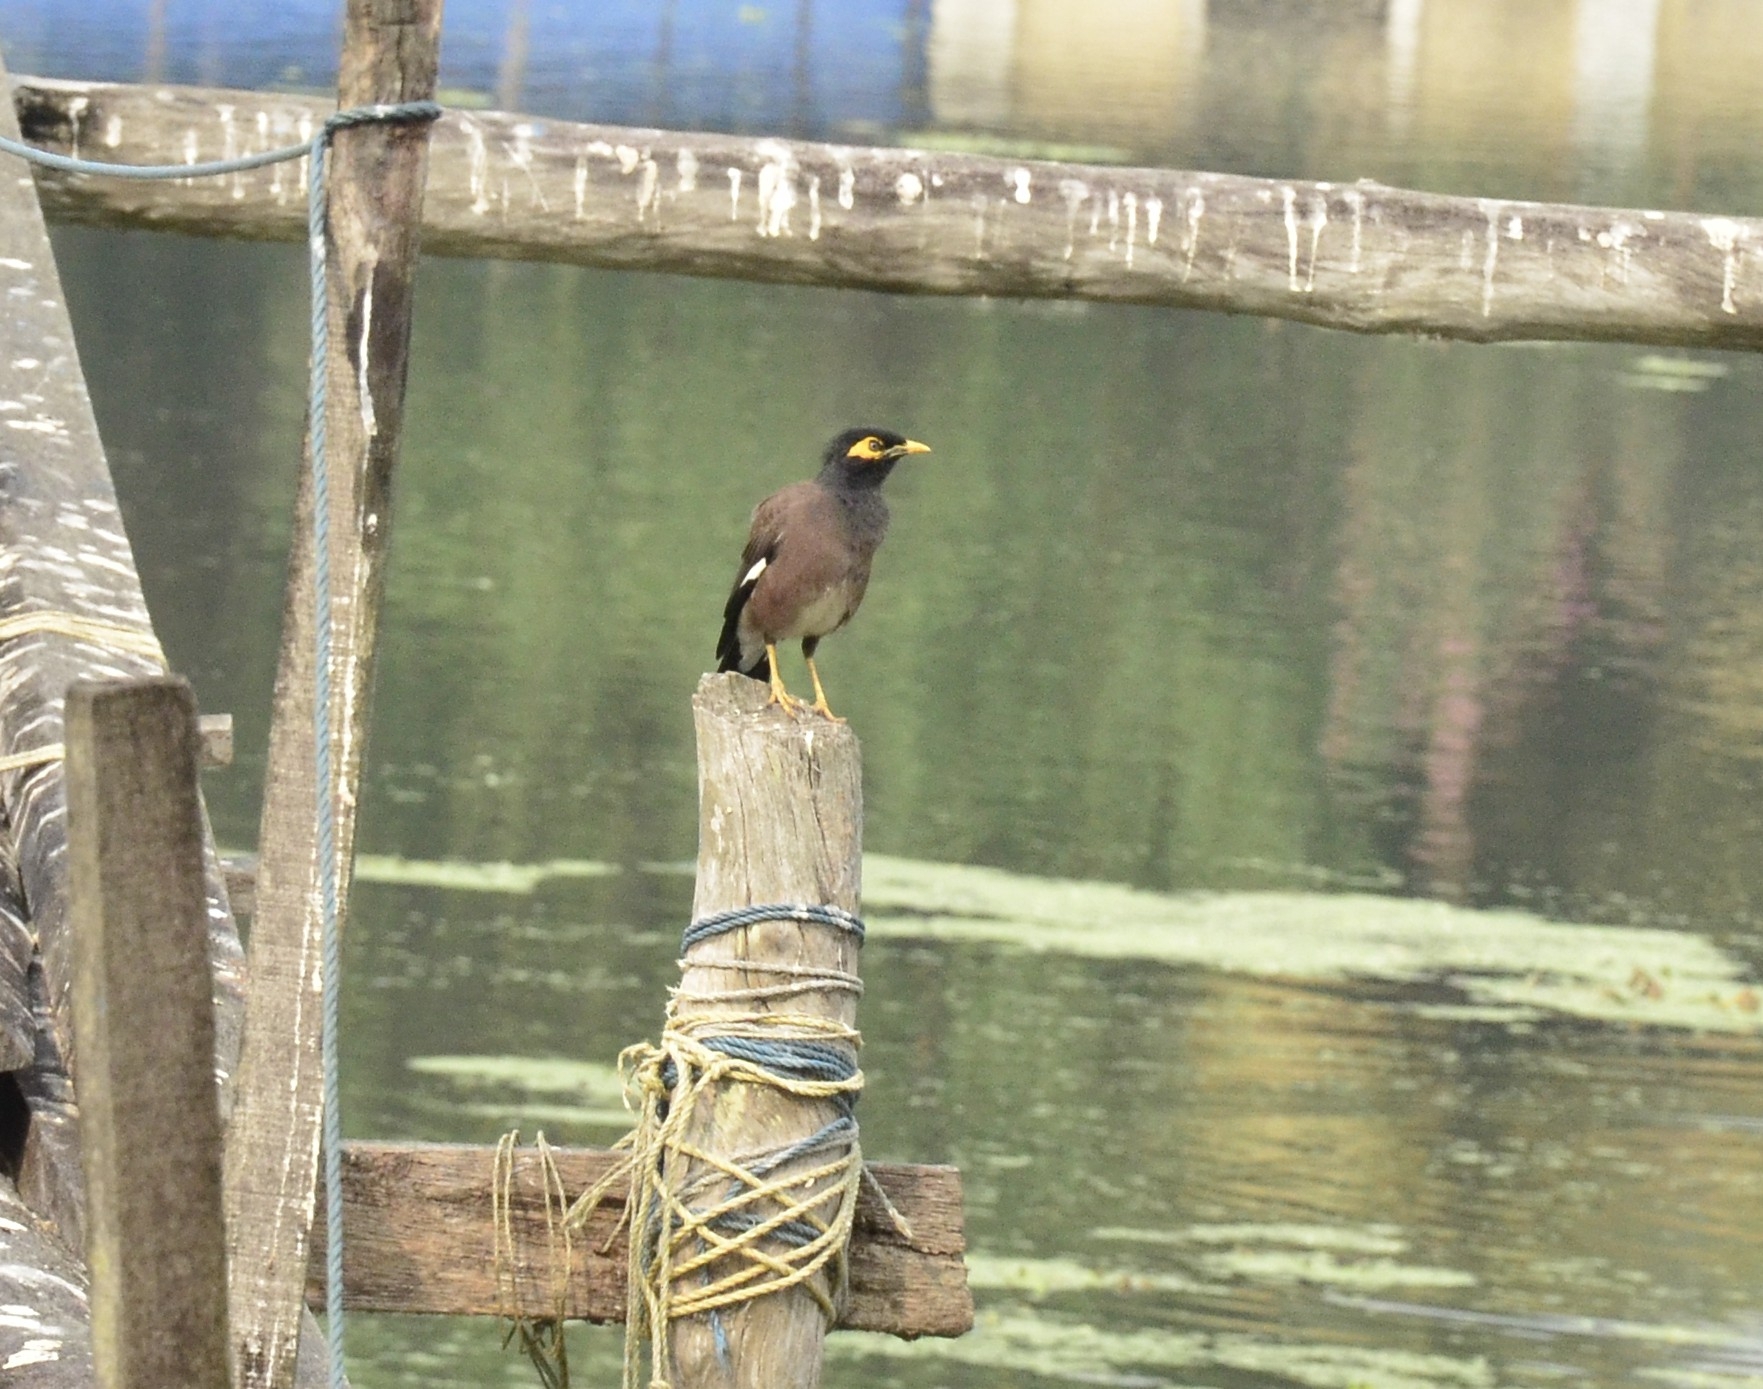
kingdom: Animalia
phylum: Chordata
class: Aves
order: Passeriformes
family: Sturnidae
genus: Acridotheres
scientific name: Acridotheres tristis
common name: Common myna
